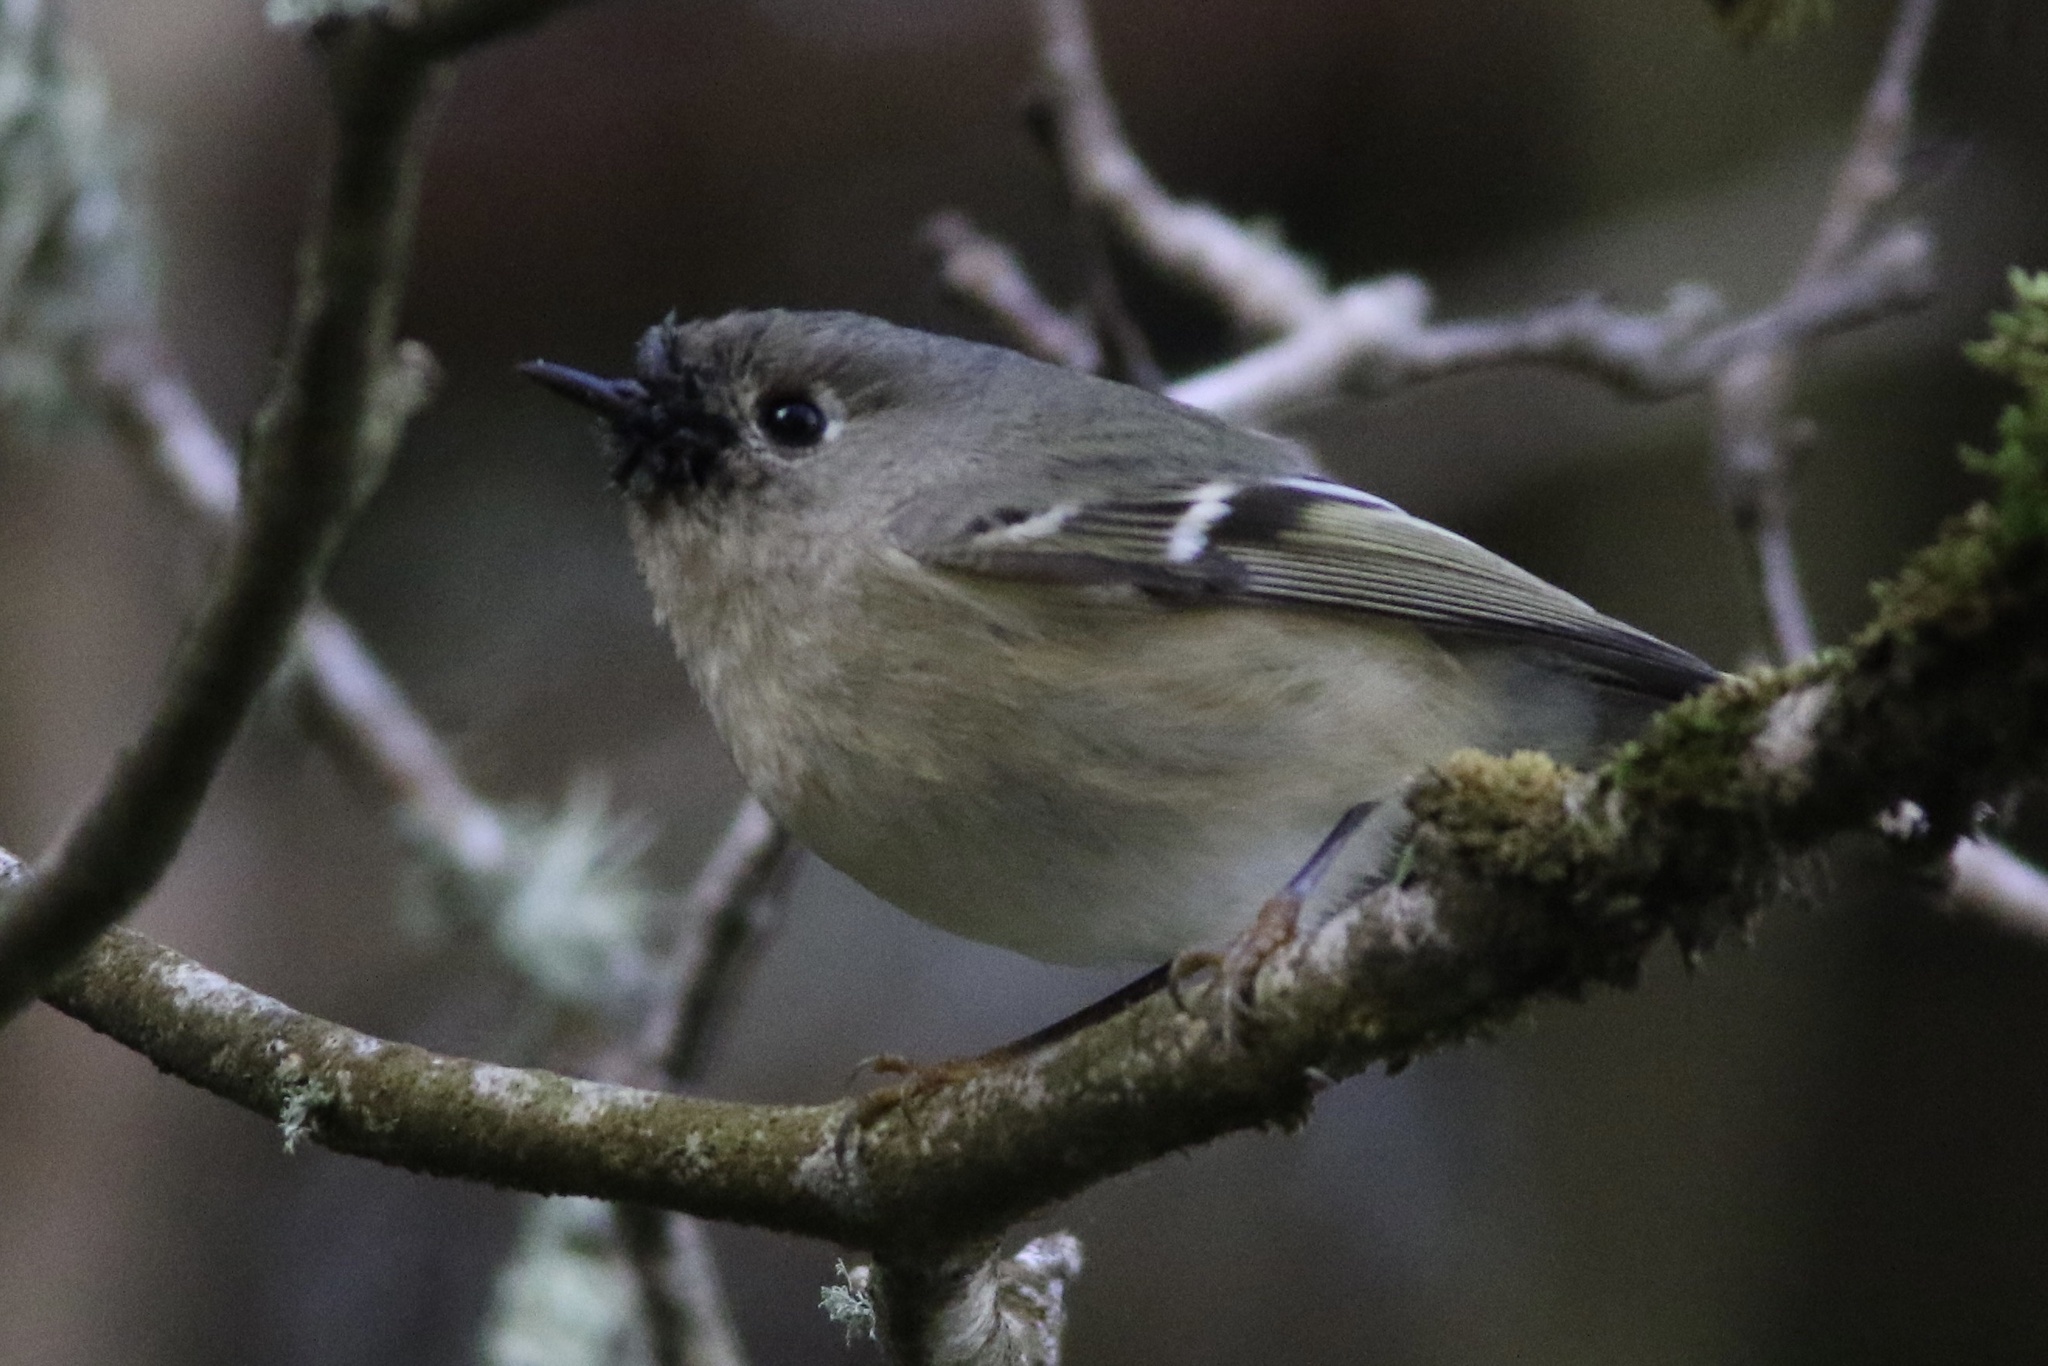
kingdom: Animalia
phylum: Chordata
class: Aves
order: Passeriformes
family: Regulidae
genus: Regulus
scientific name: Regulus calendula
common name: Ruby-crowned kinglet
